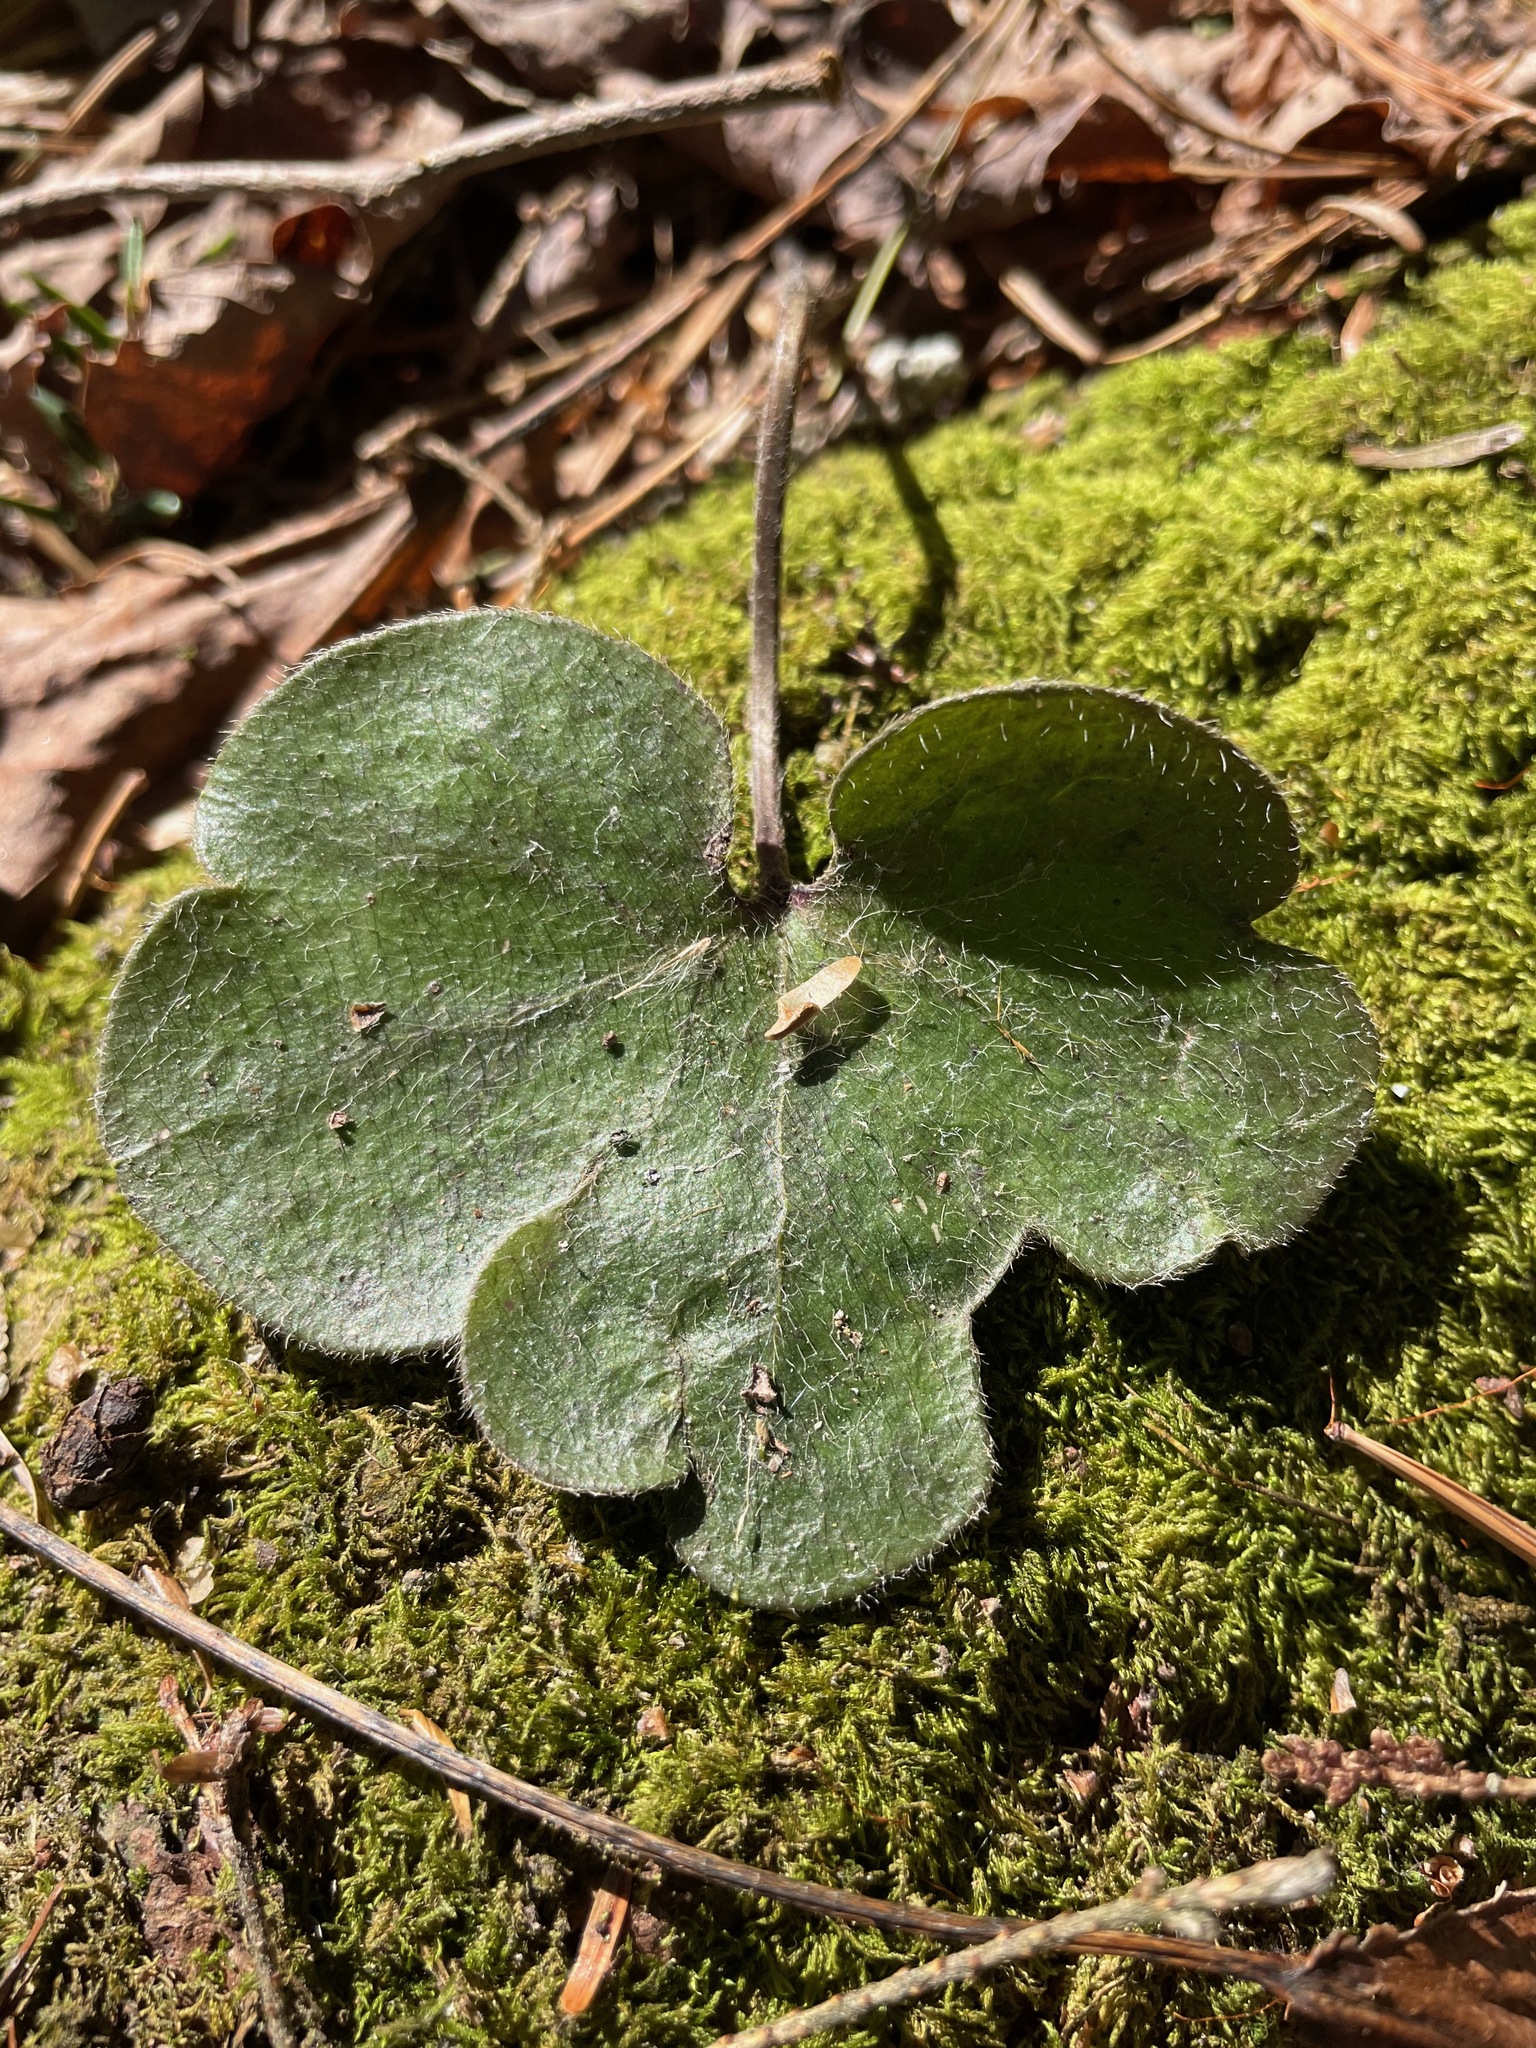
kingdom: Plantae
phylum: Tracheophyta
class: Magnoliopsida
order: Ranunculales
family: Ranunculaceae
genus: Hepatica
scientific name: Hepatica americana
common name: American hepatica
